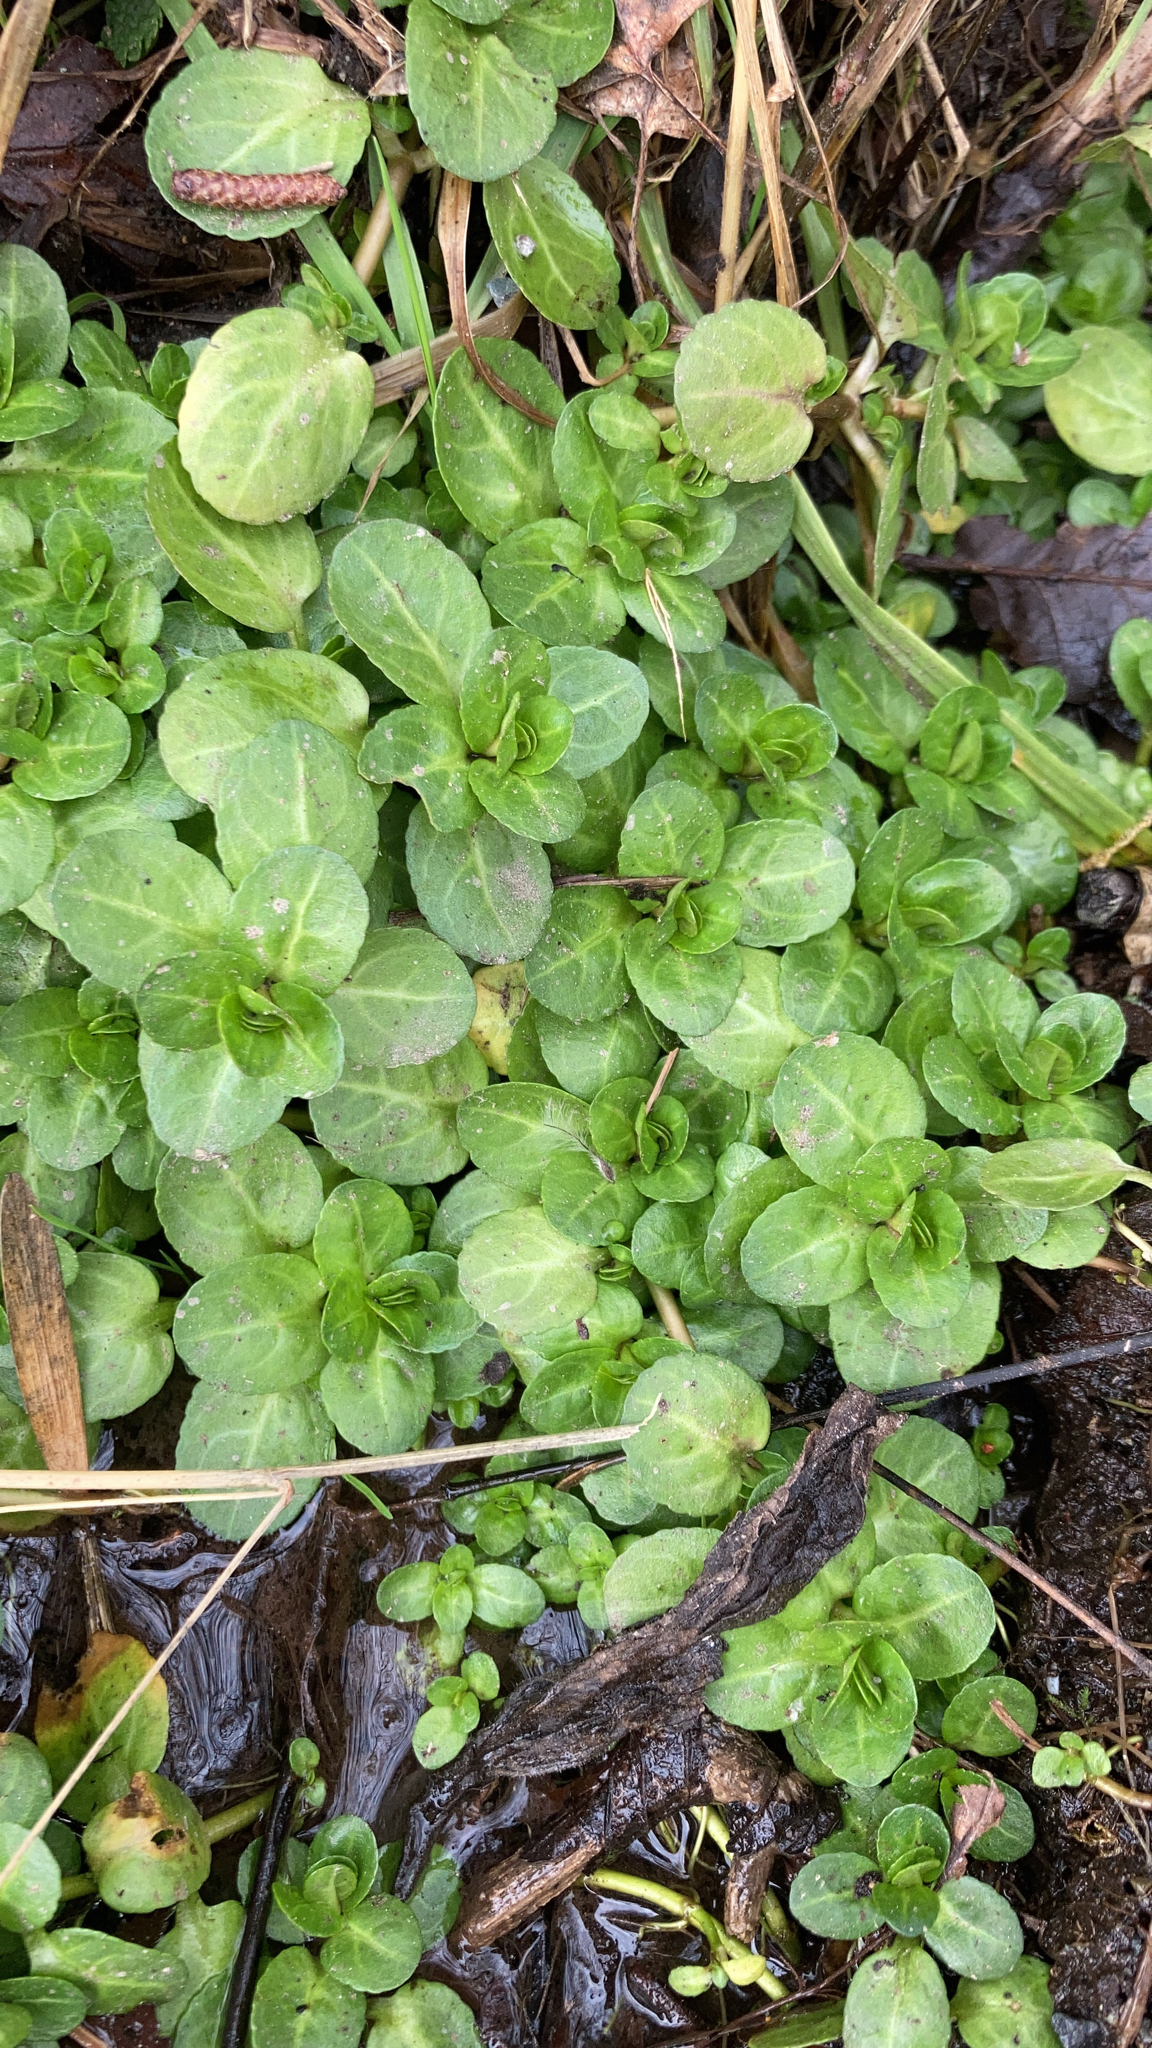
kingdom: Plantae
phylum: Tracheophyta
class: Magnoliopsida
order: Lamiales
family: Plantaginaceae
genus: Veronica
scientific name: Veronica beccabunga
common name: Brooklime
